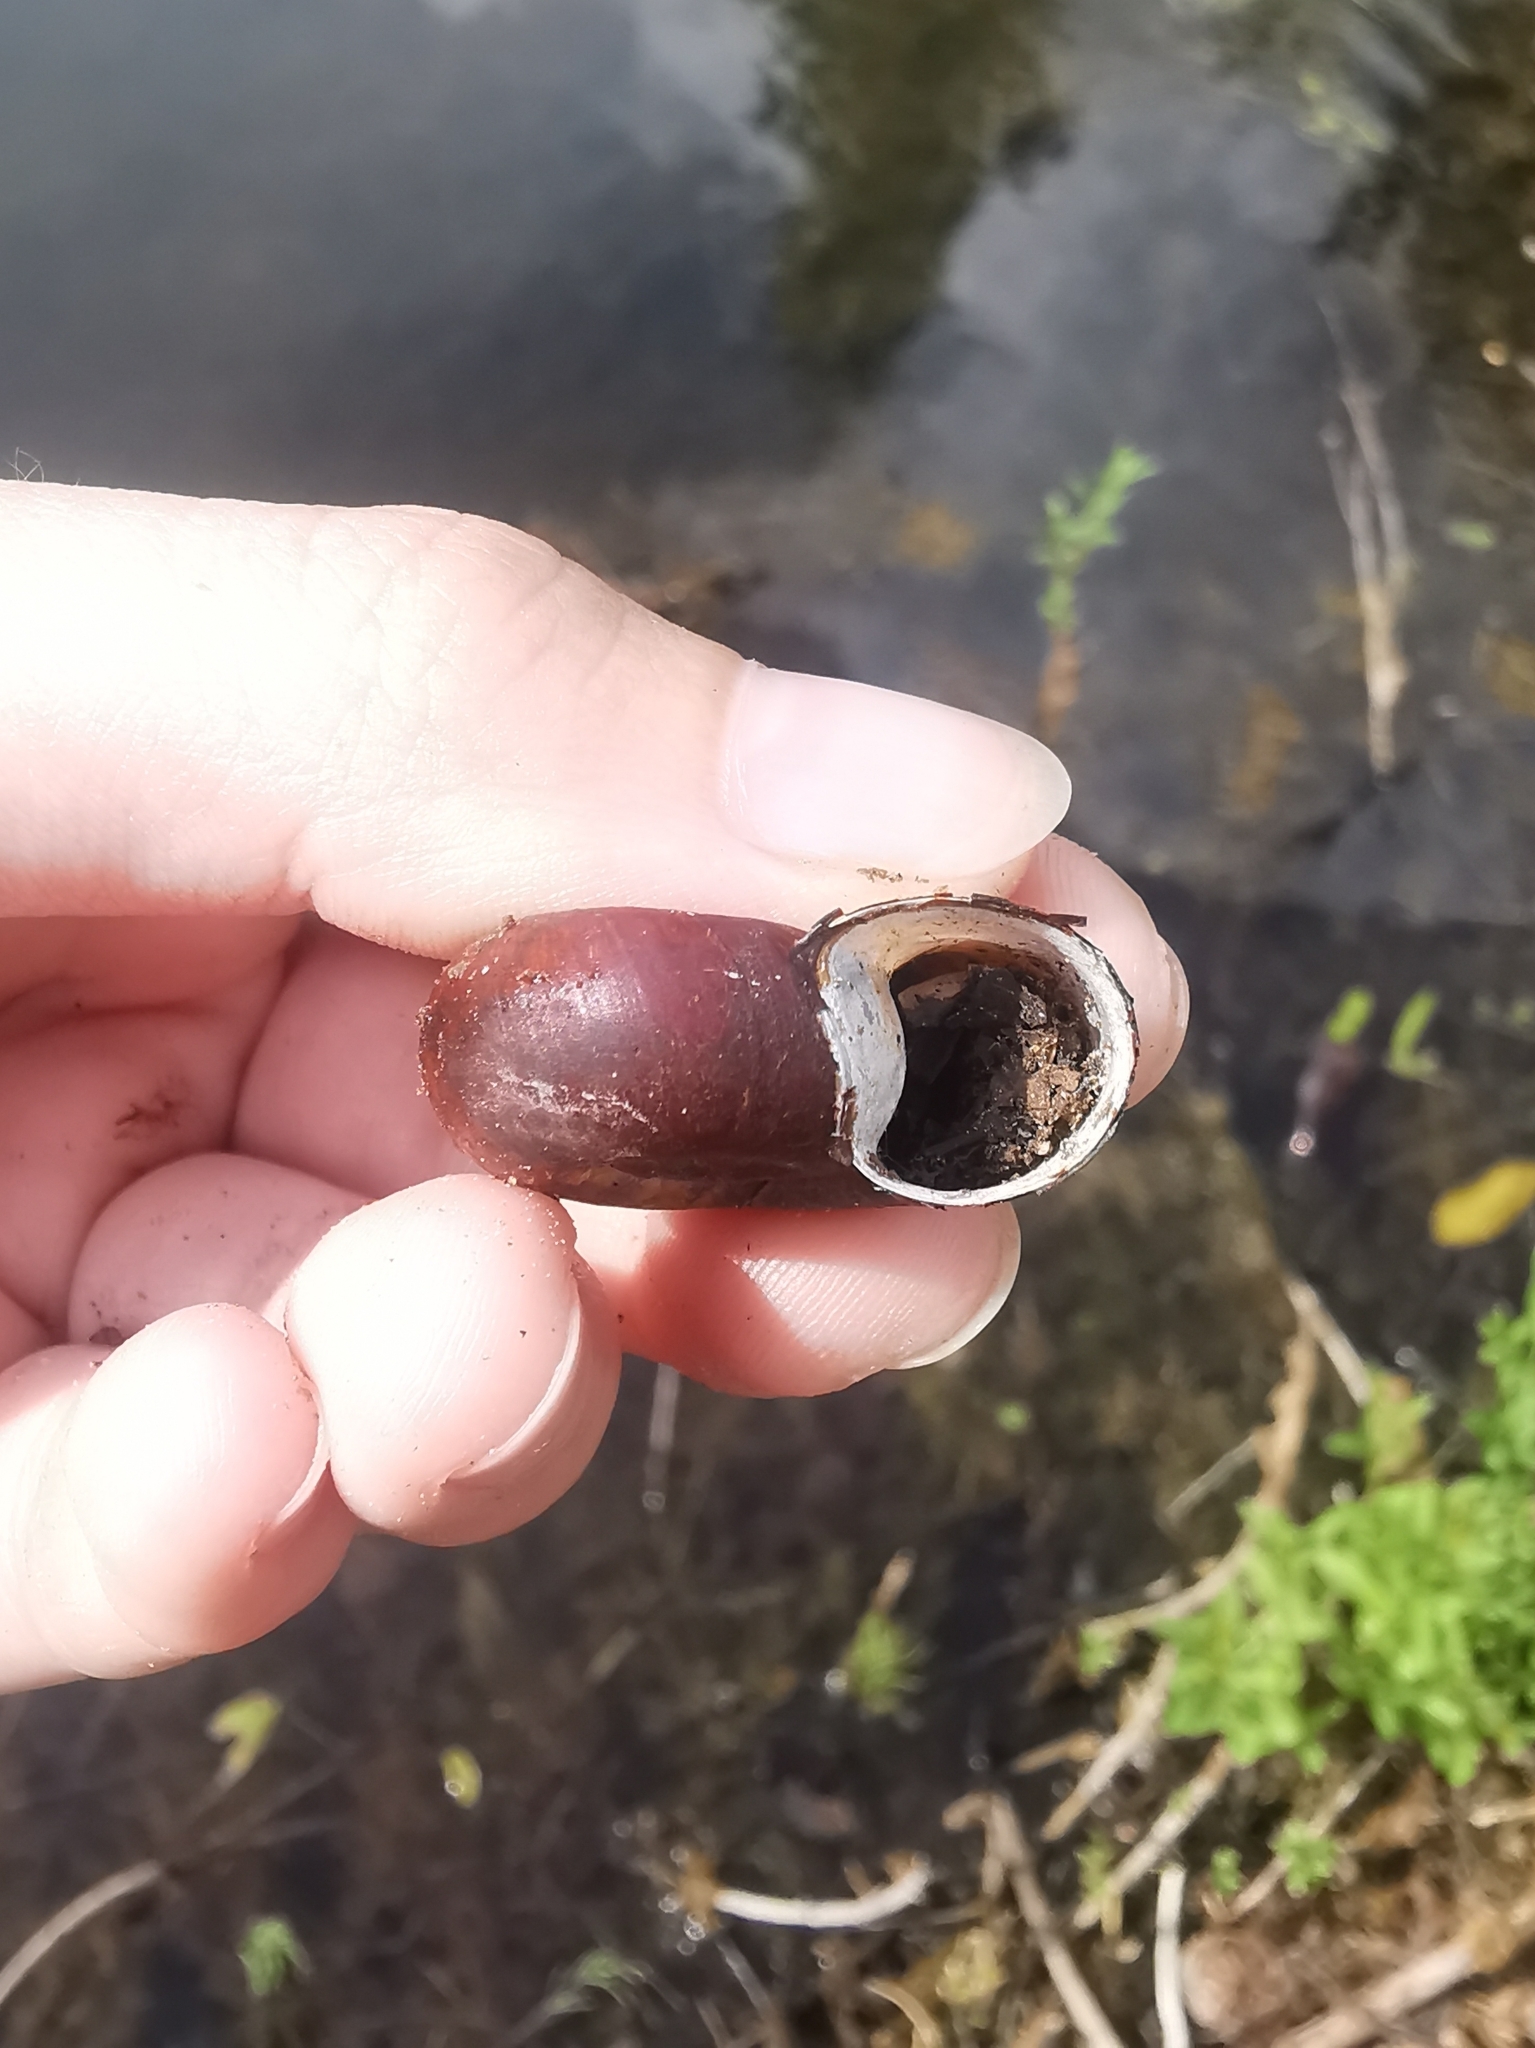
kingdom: Animalia
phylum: Mollusca
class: Gastropoda
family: Planorbidae
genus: Planorbarius
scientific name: Planorbarius corneus
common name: Great ramshorn
